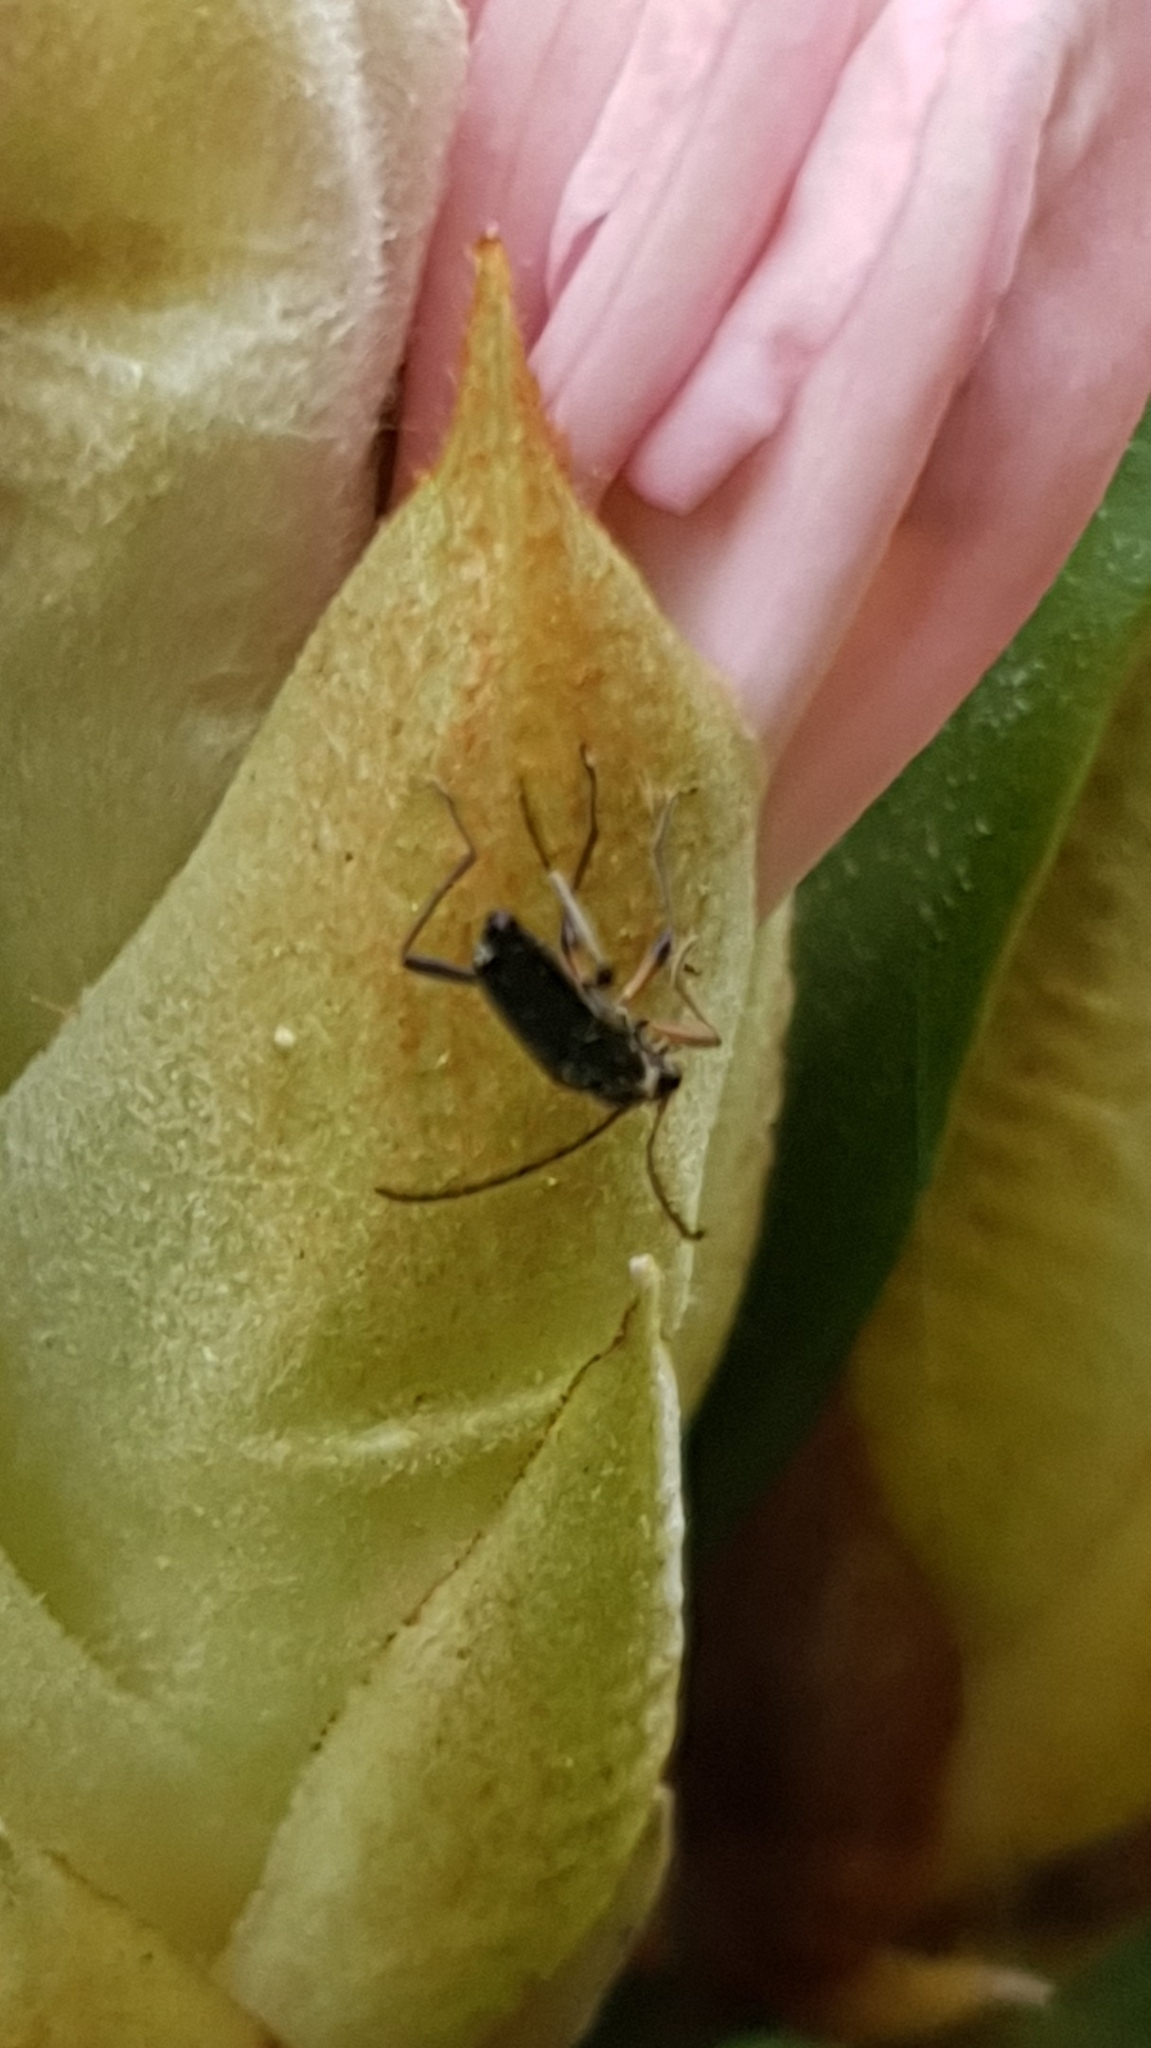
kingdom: Animalia
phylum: Arthropoda
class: Insecta
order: Coleoptera
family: Cerambycidae
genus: Grammoptera
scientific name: Grammoptera ruficornis
